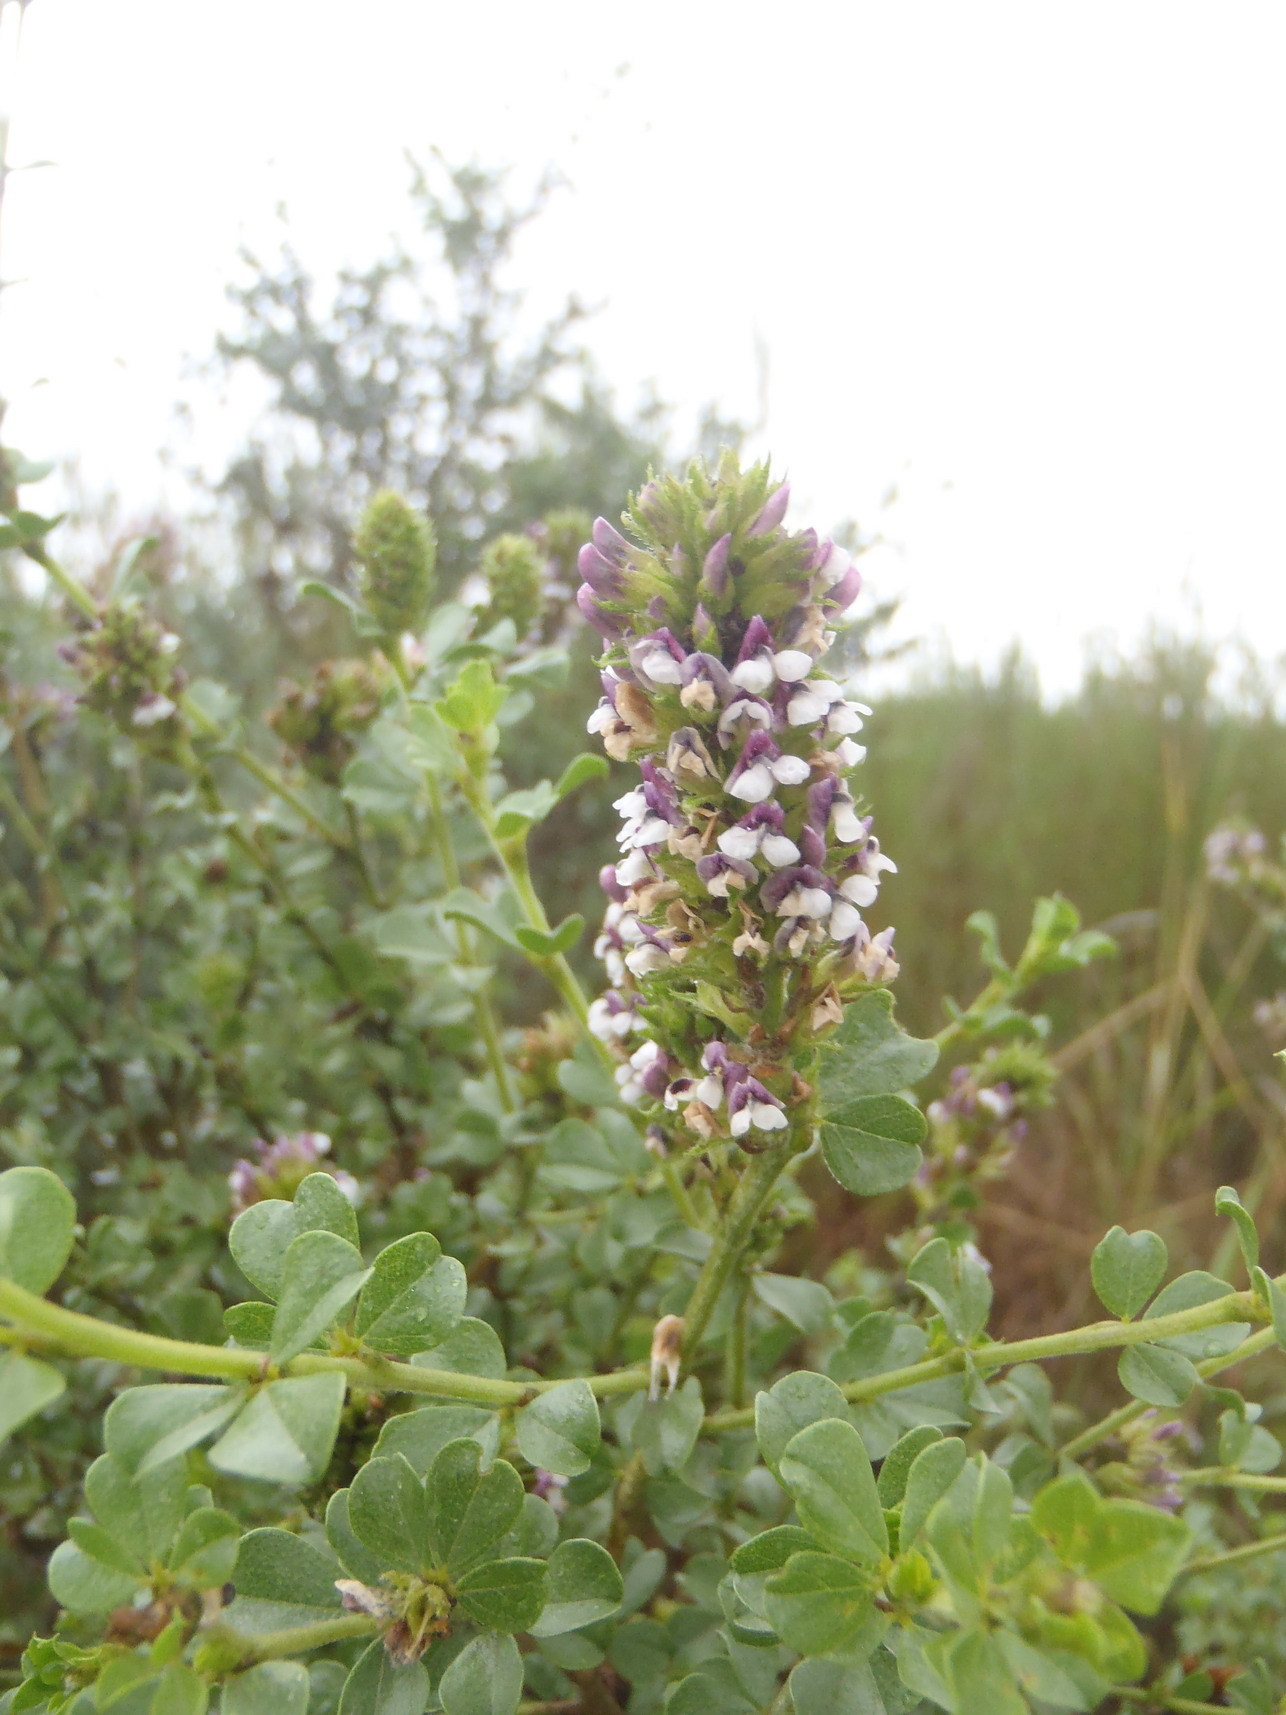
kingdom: Plantae
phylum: Tracheophyta
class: Magnoliopsida
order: Fabales
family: Fabaceae
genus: Psoralea
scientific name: Psoralea stachyera
